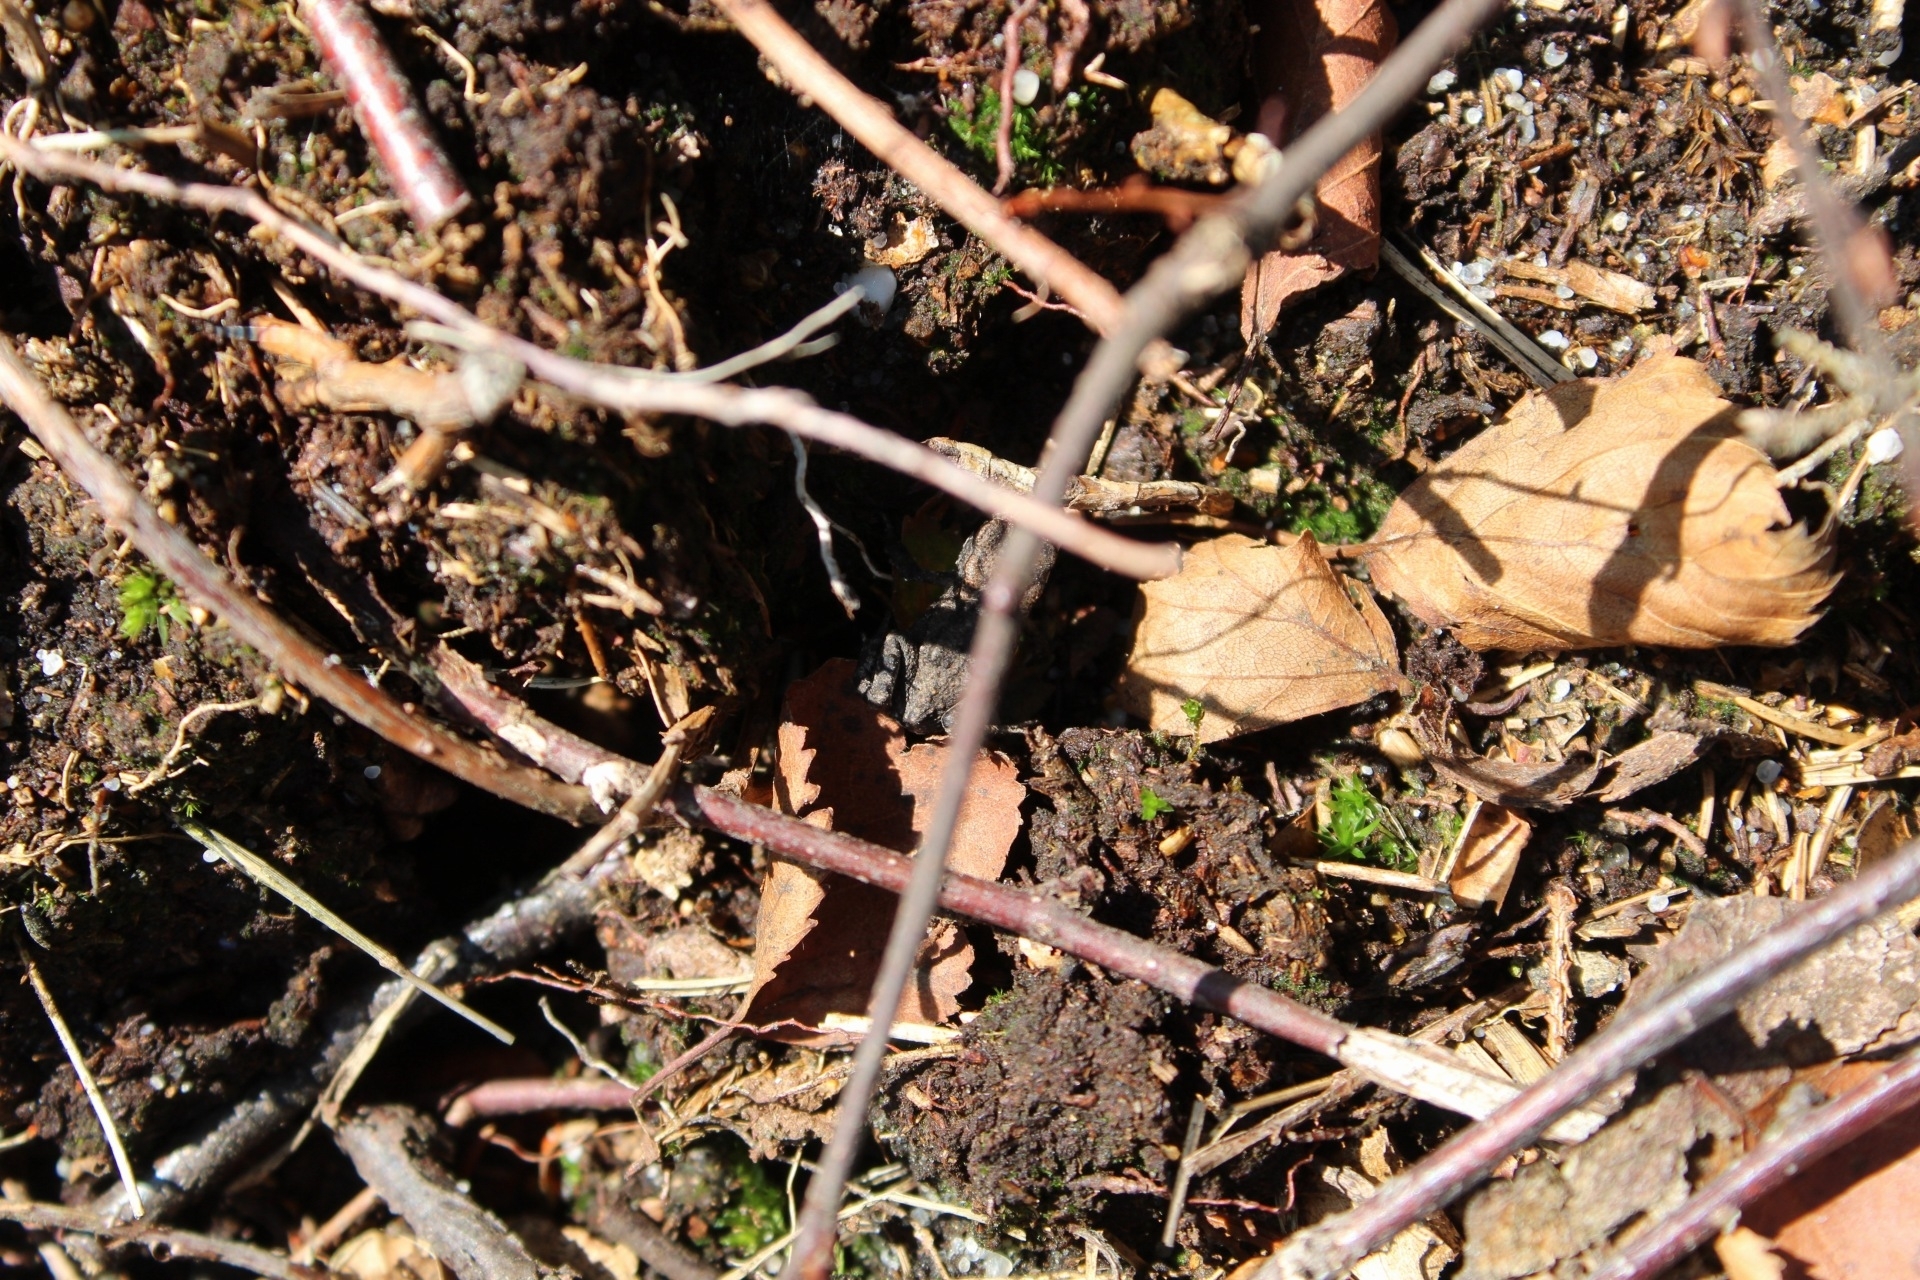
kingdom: Animalia
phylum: Chordata
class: Amphibia
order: Anura
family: Bufonidae
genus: Bufo
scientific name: Bufo bufo
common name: Common toad
